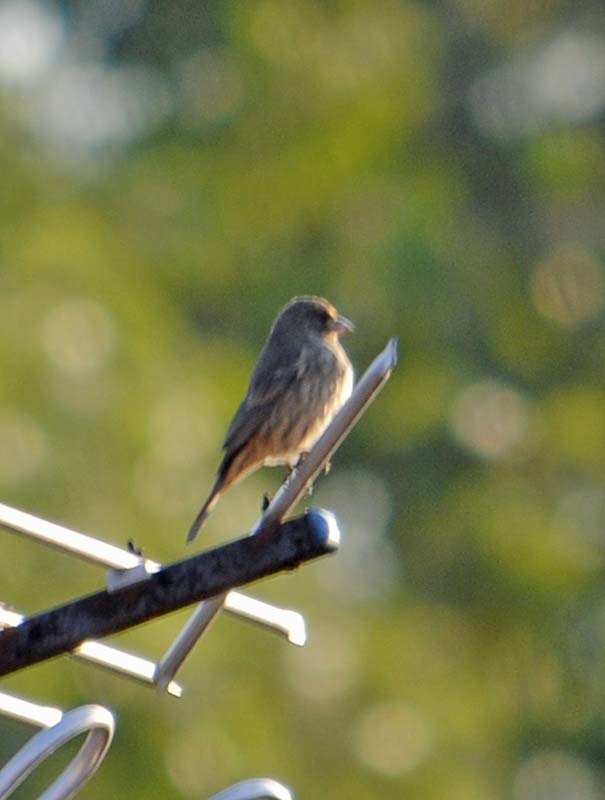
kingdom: Animalia
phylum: Chordata
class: Aves
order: Passeriformes
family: Fringillidae
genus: Haemorhous
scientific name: Haemorhous mexicanus
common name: House finch
